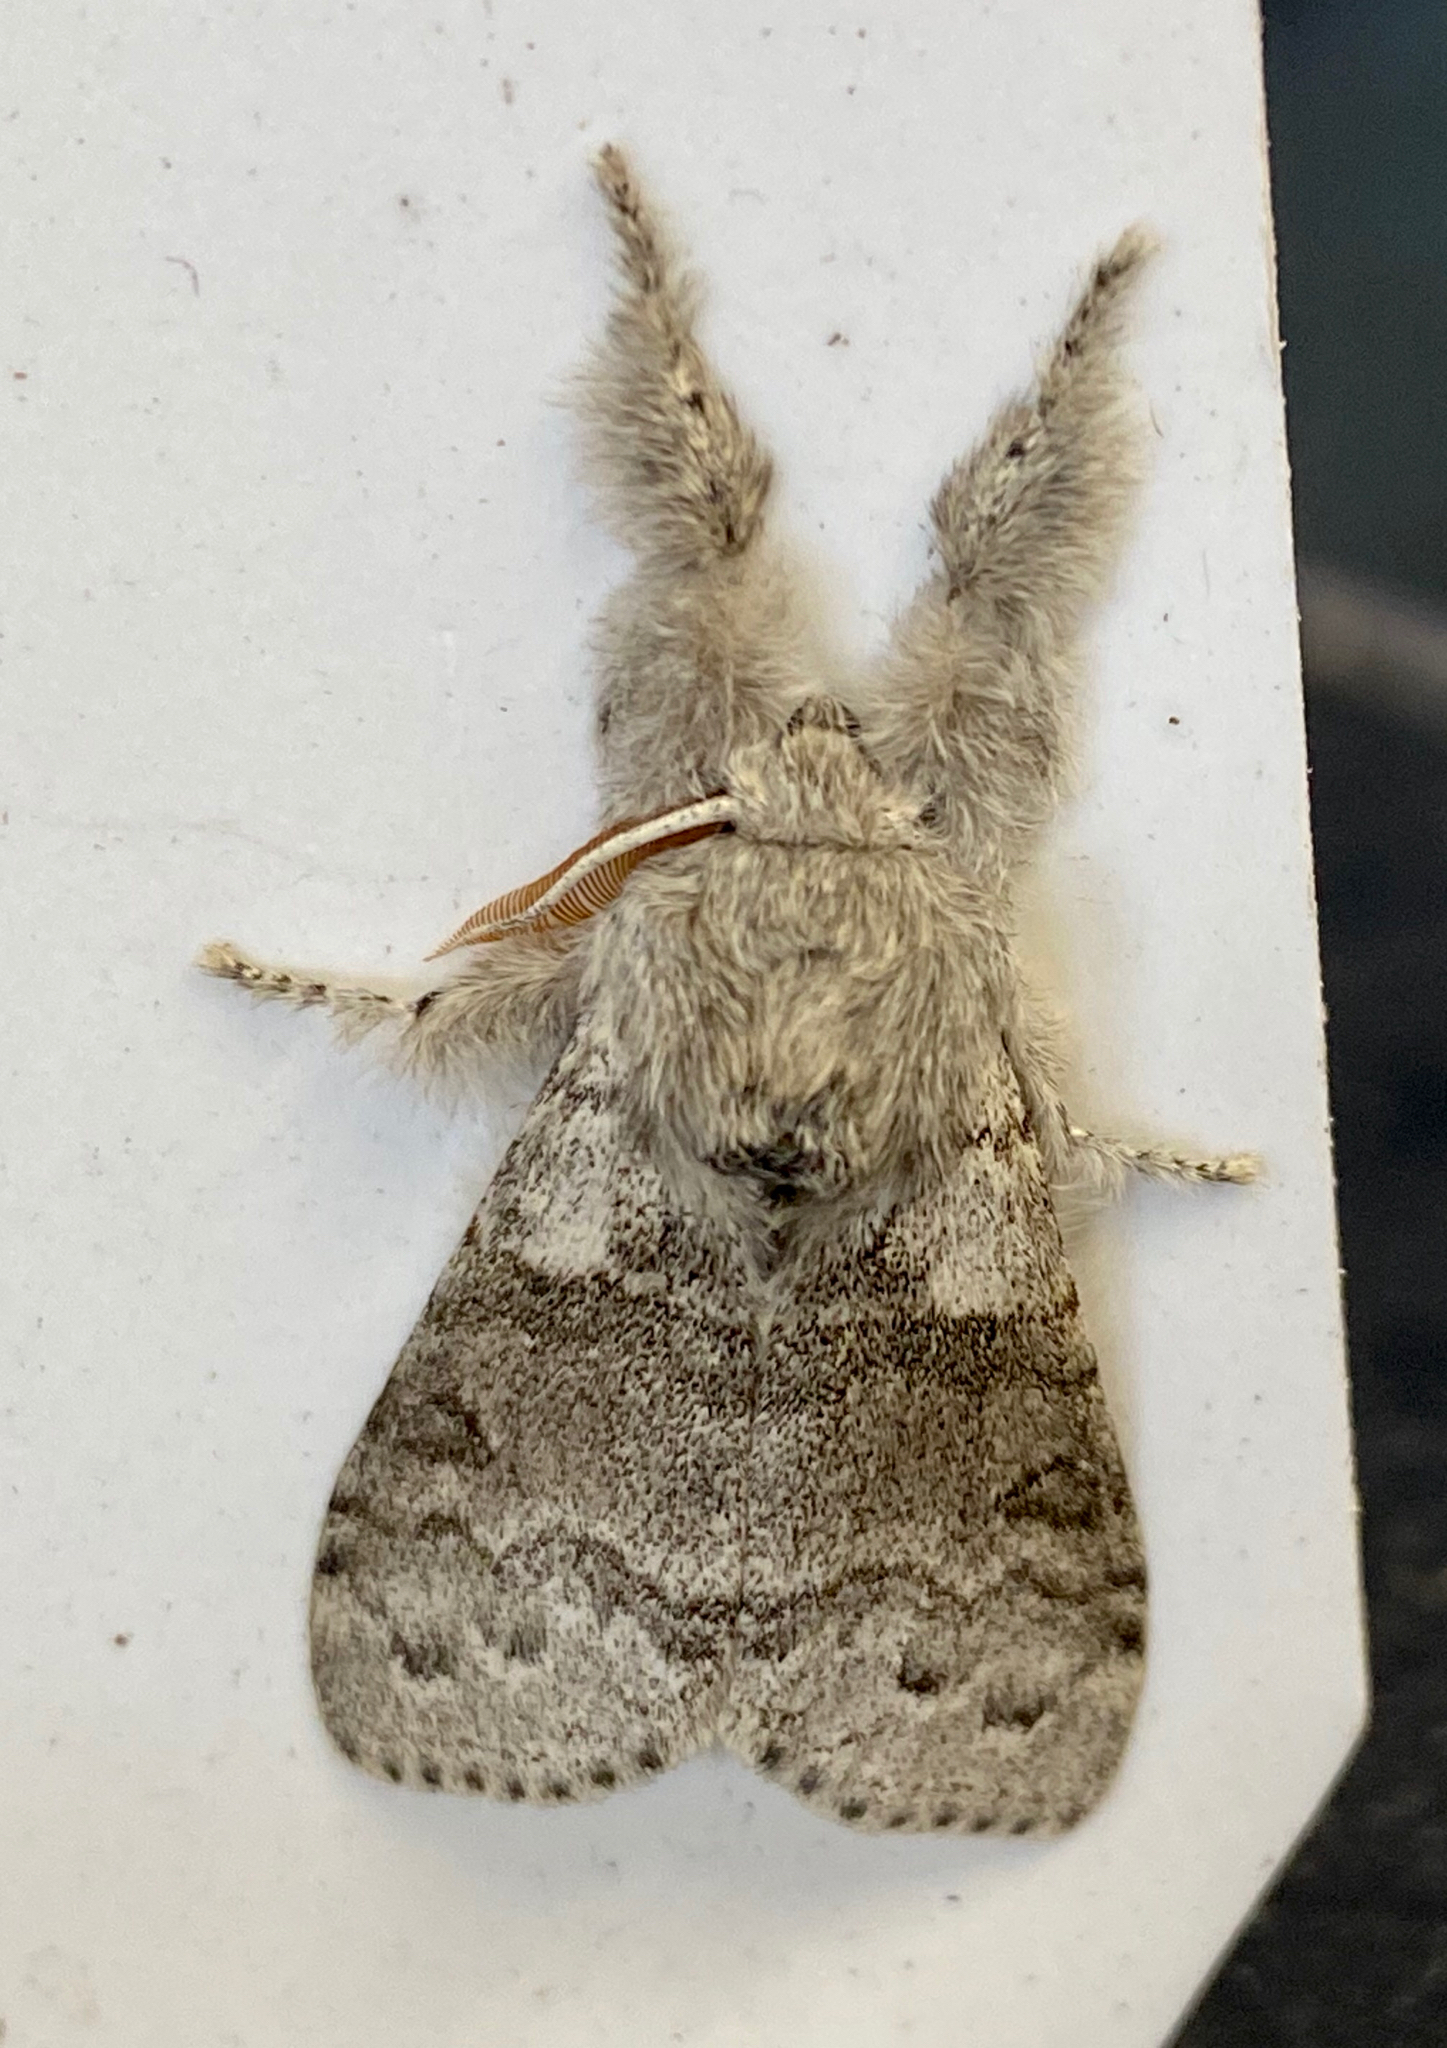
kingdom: Animalia
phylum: Arthropoda
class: Insecta
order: Lepidoptera
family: Erebidae
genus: Calliteara
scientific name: Calliteara pudibunda
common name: Pale tussock
